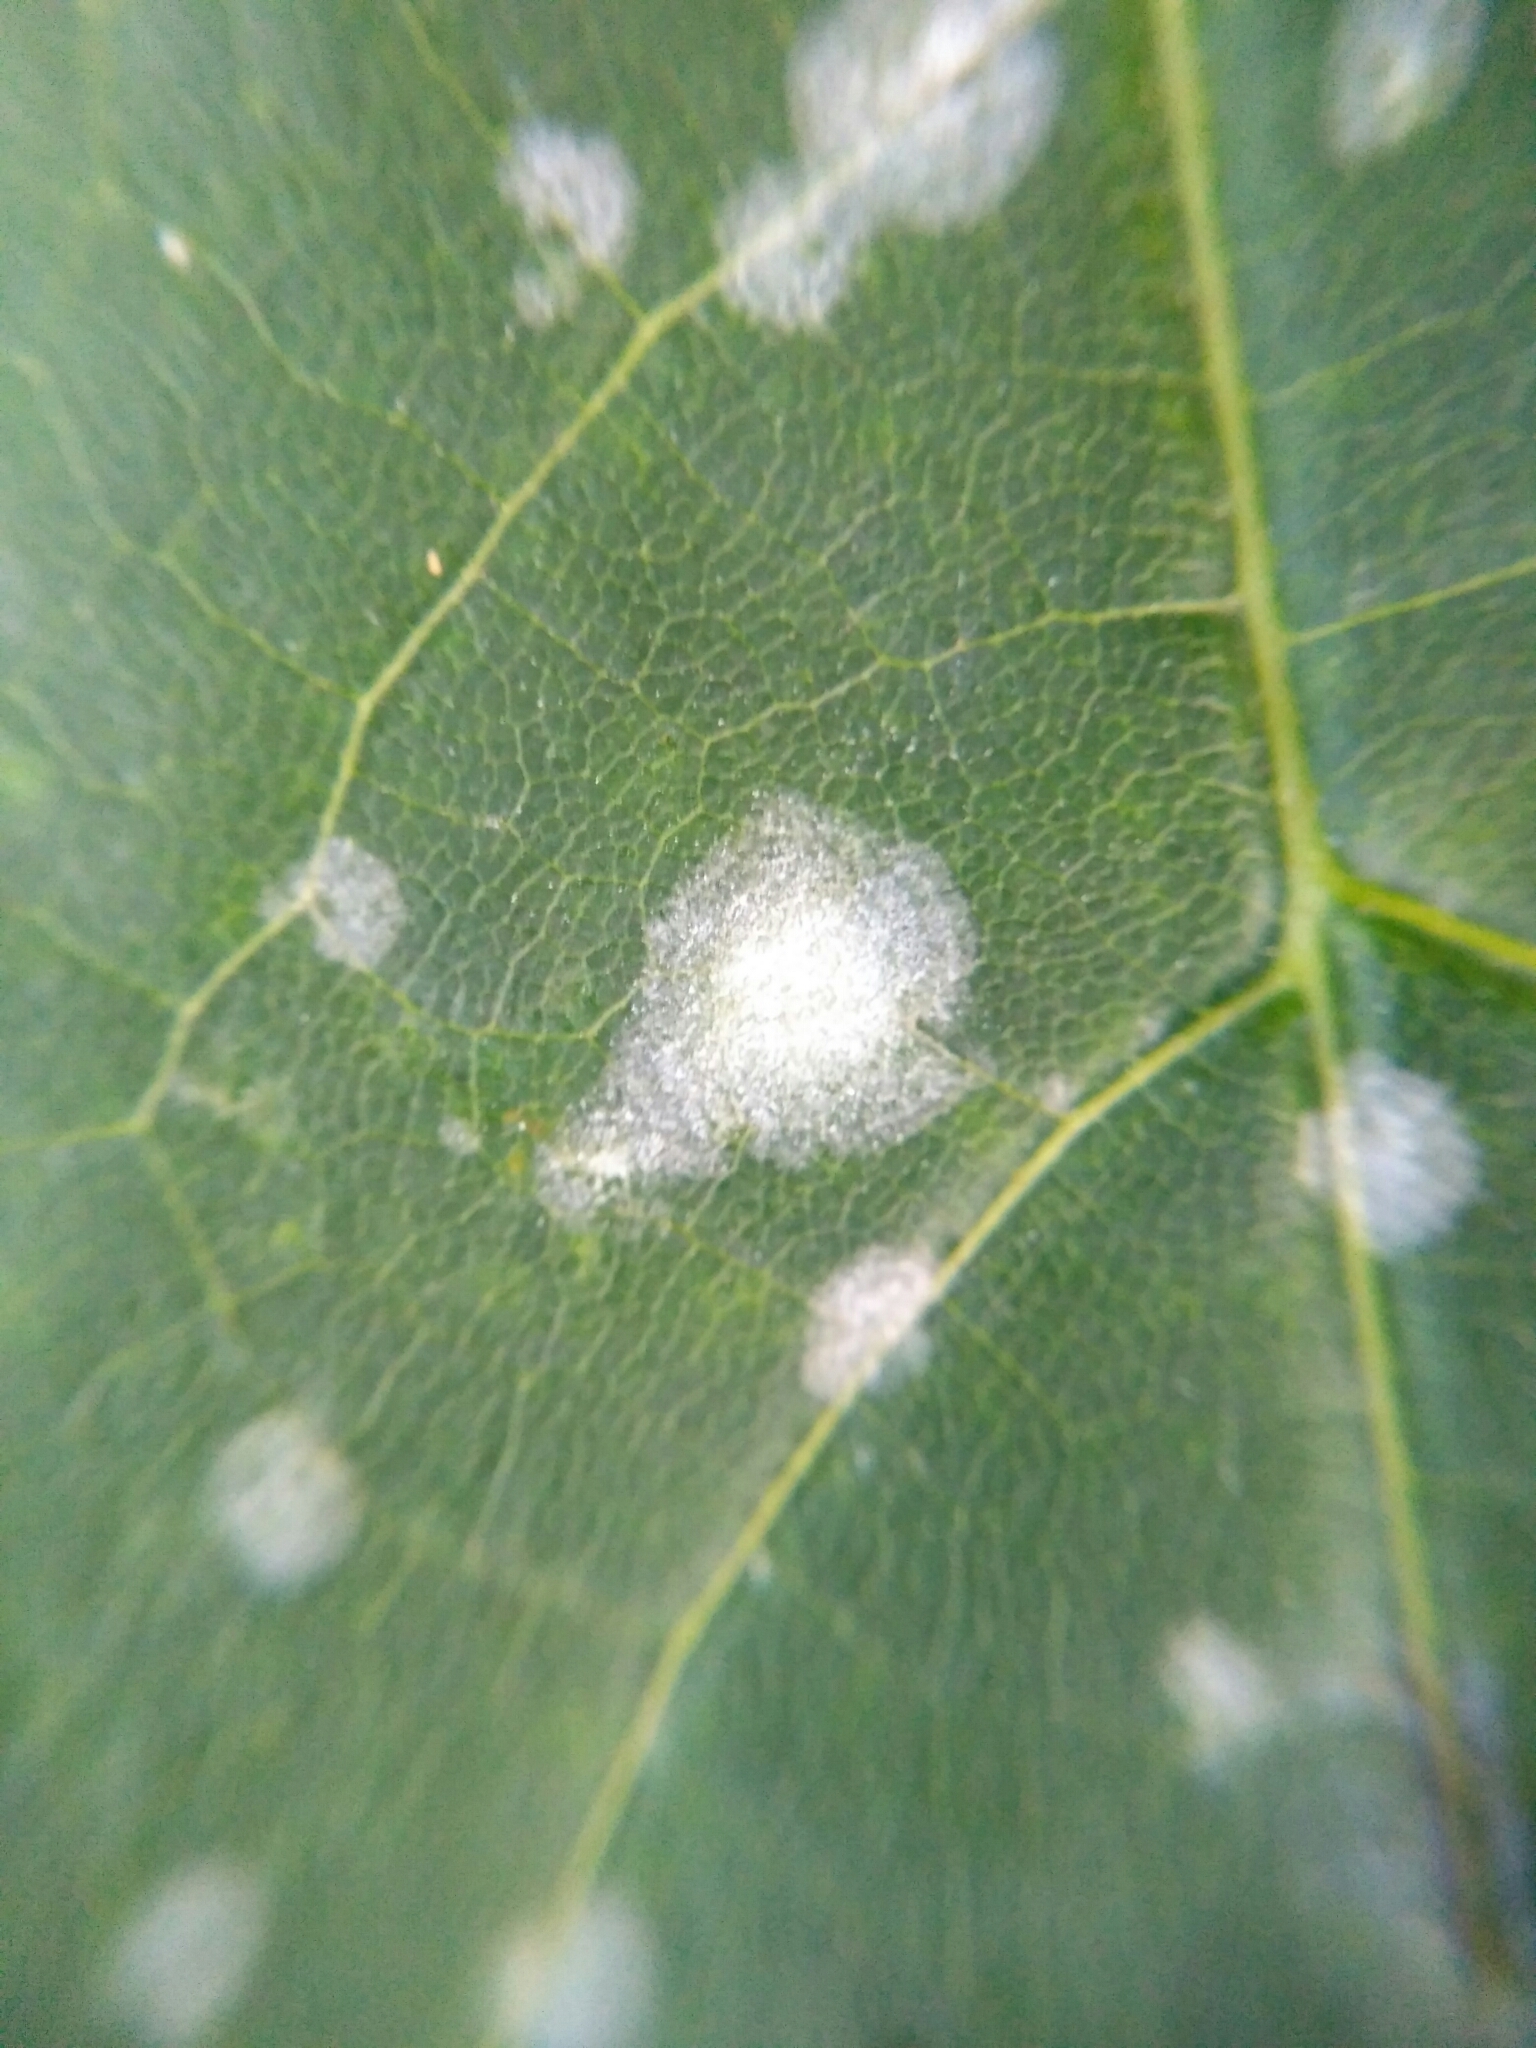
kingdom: Fungi
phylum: Ascomycota
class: Leotiomycetes
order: Helotiales
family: Erysiphaceae
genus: Sawadaea
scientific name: Sawadaea tulasnei
